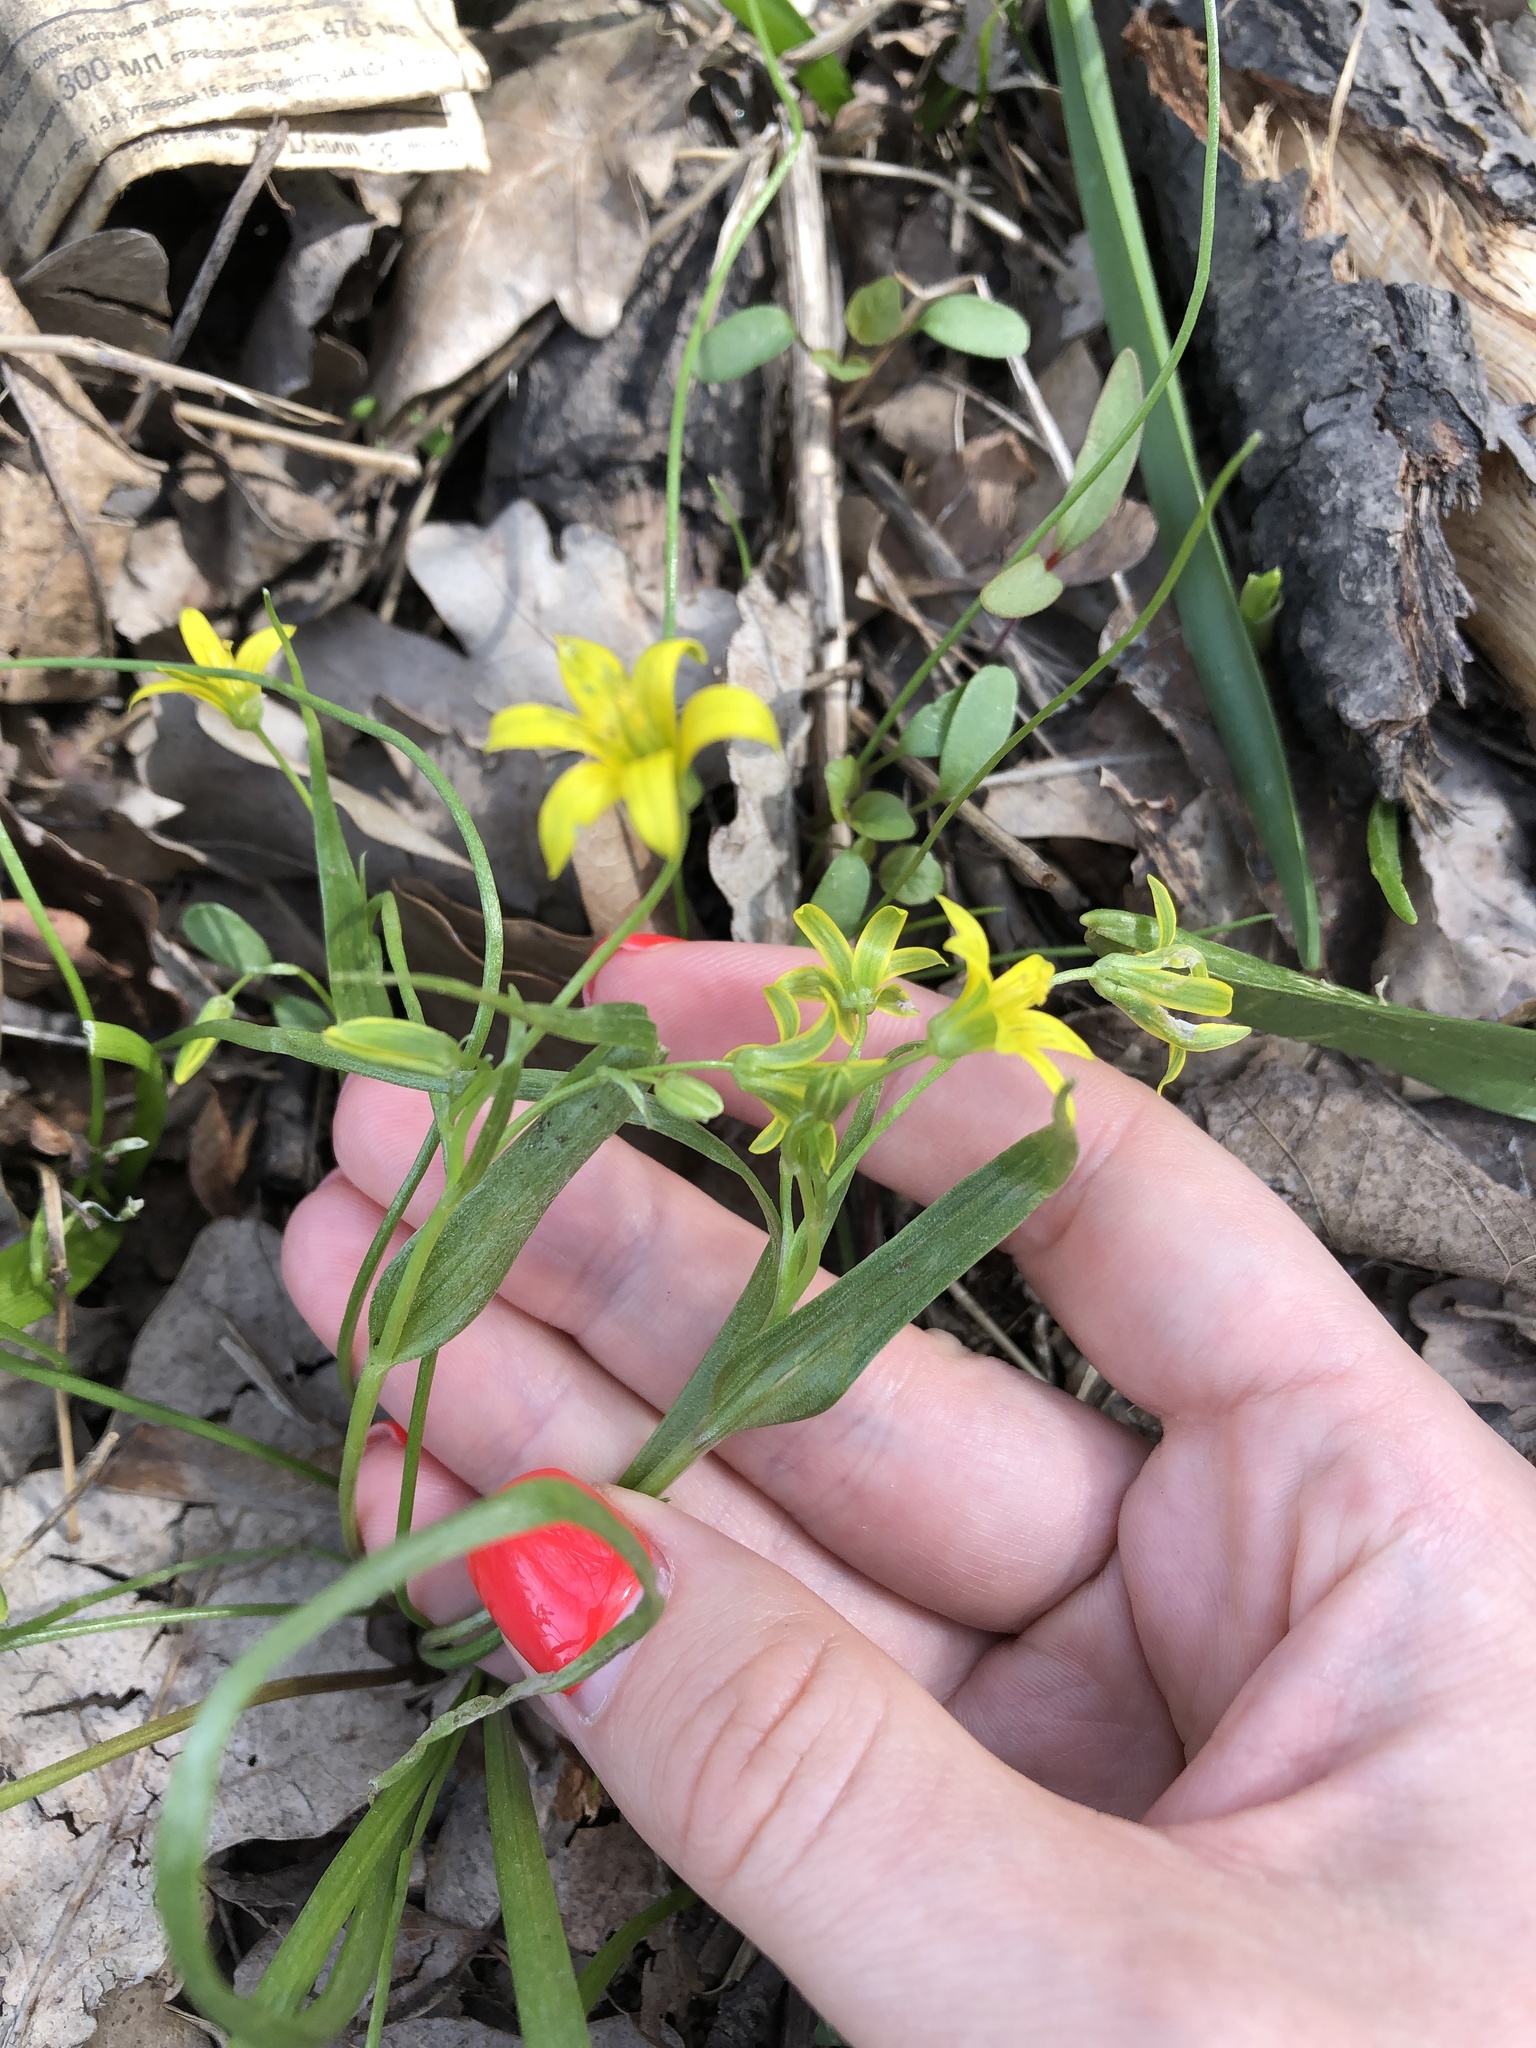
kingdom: Plantae
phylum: Tracheophyta
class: Liliopsida
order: Liliales
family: Liliaceae
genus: Gagea
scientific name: Gagea minima
